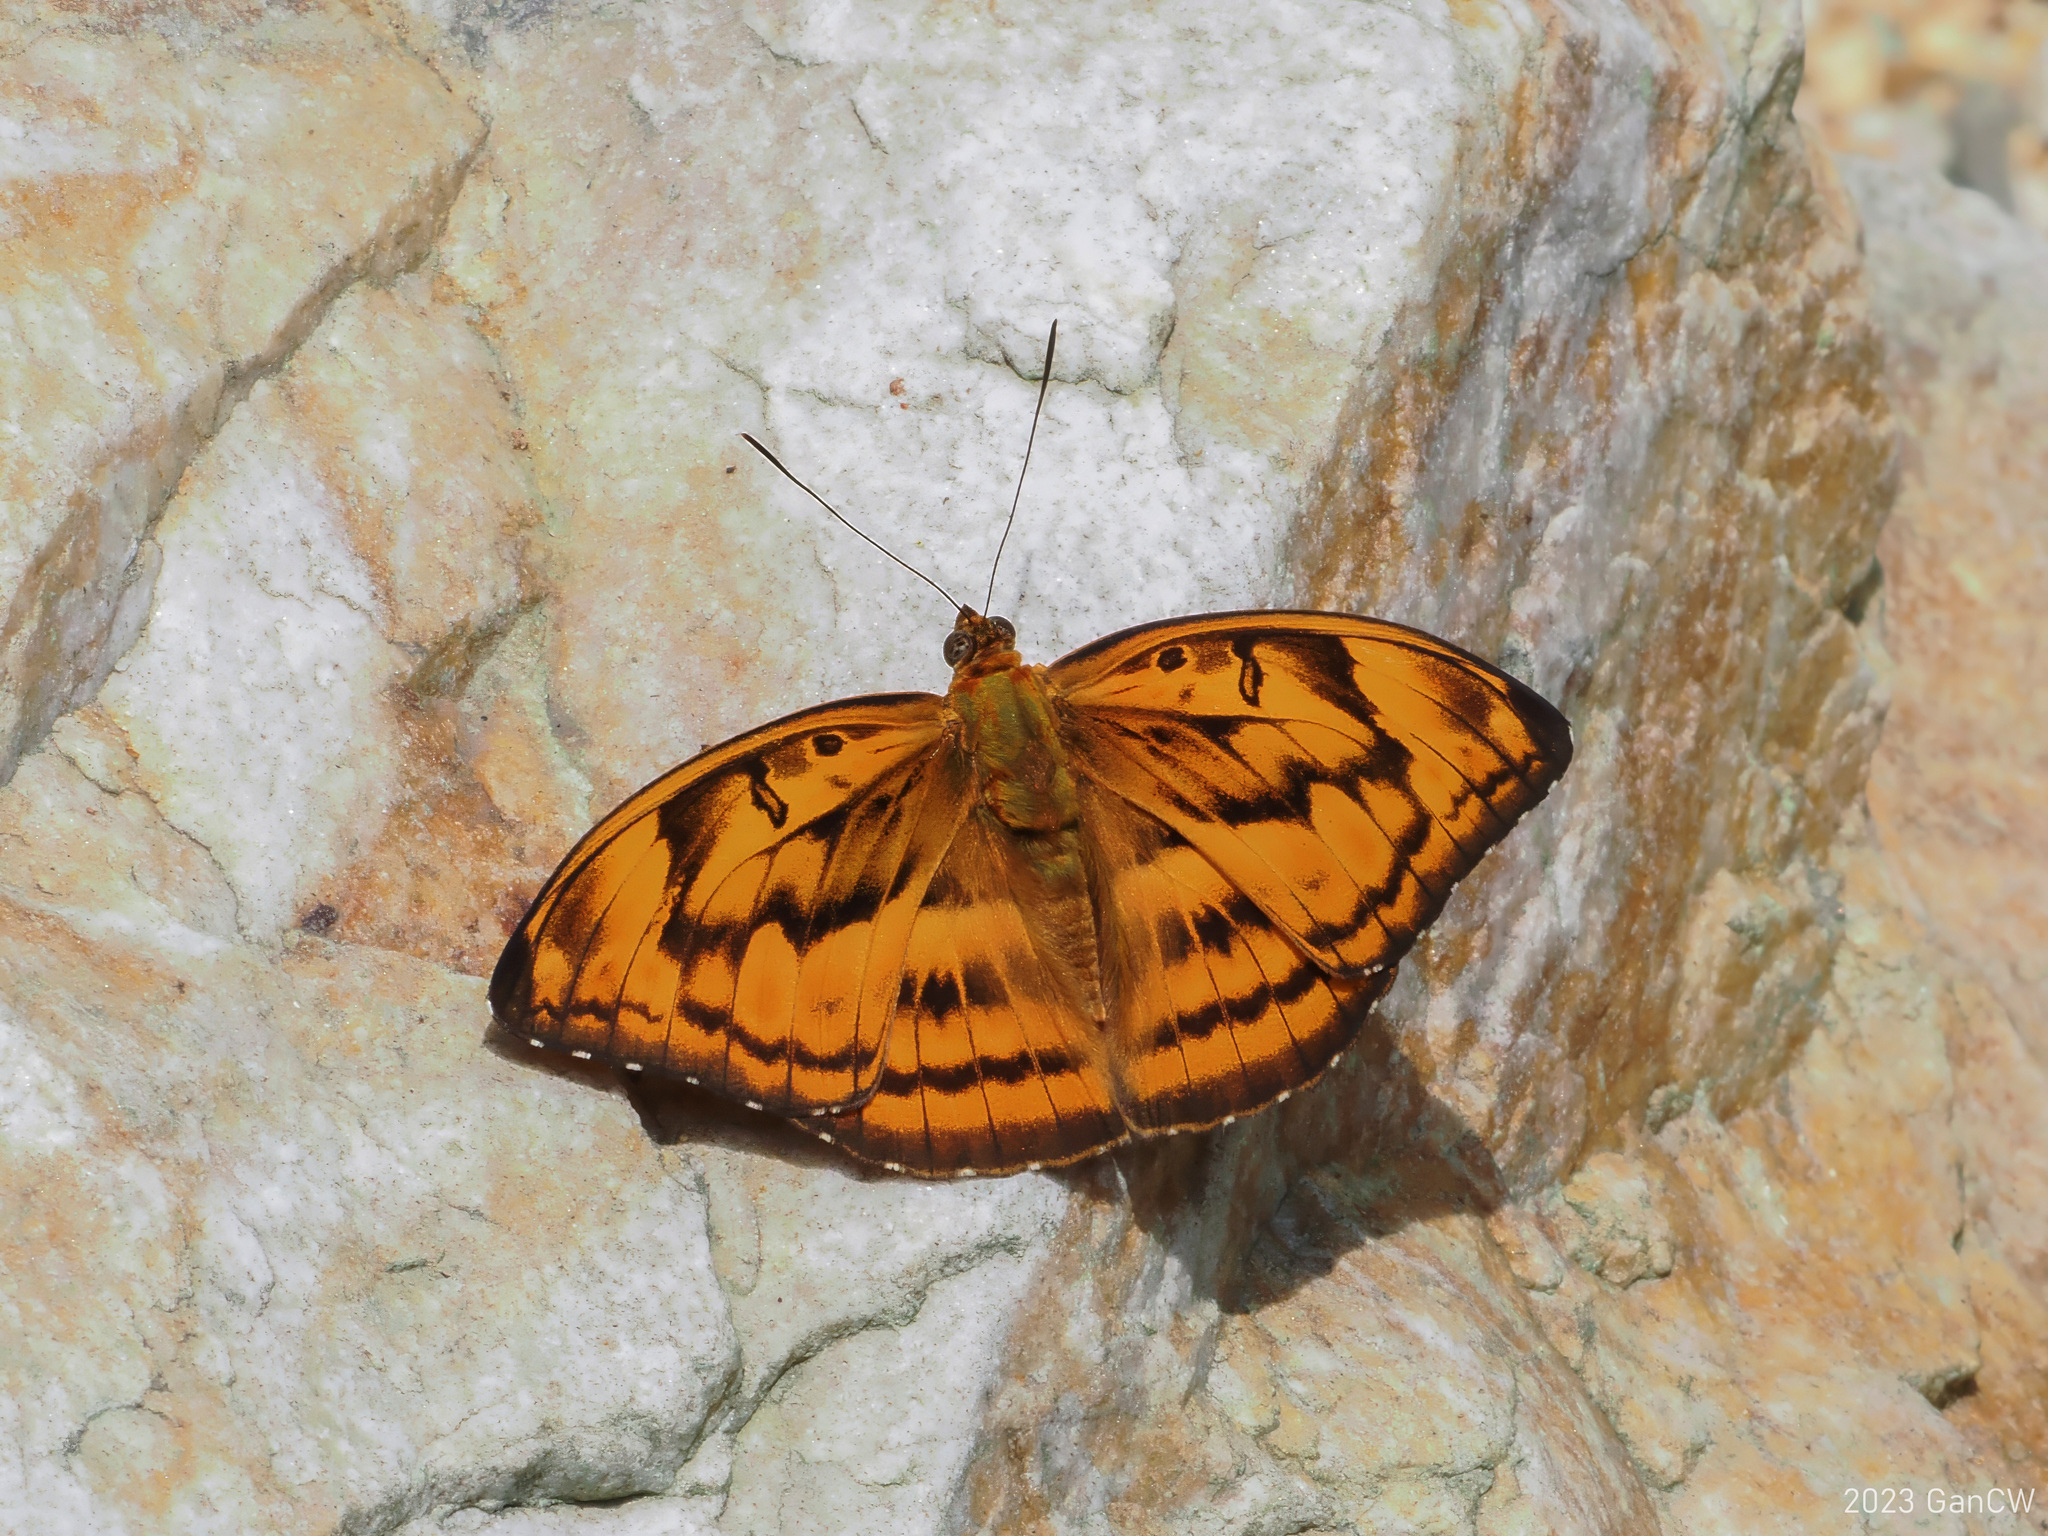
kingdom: Animalia
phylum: Arthropoda
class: Insecta
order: Lepidoptera
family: Nymphalidae
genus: Abrota
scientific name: Abrota ganga
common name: Sergeant-major
